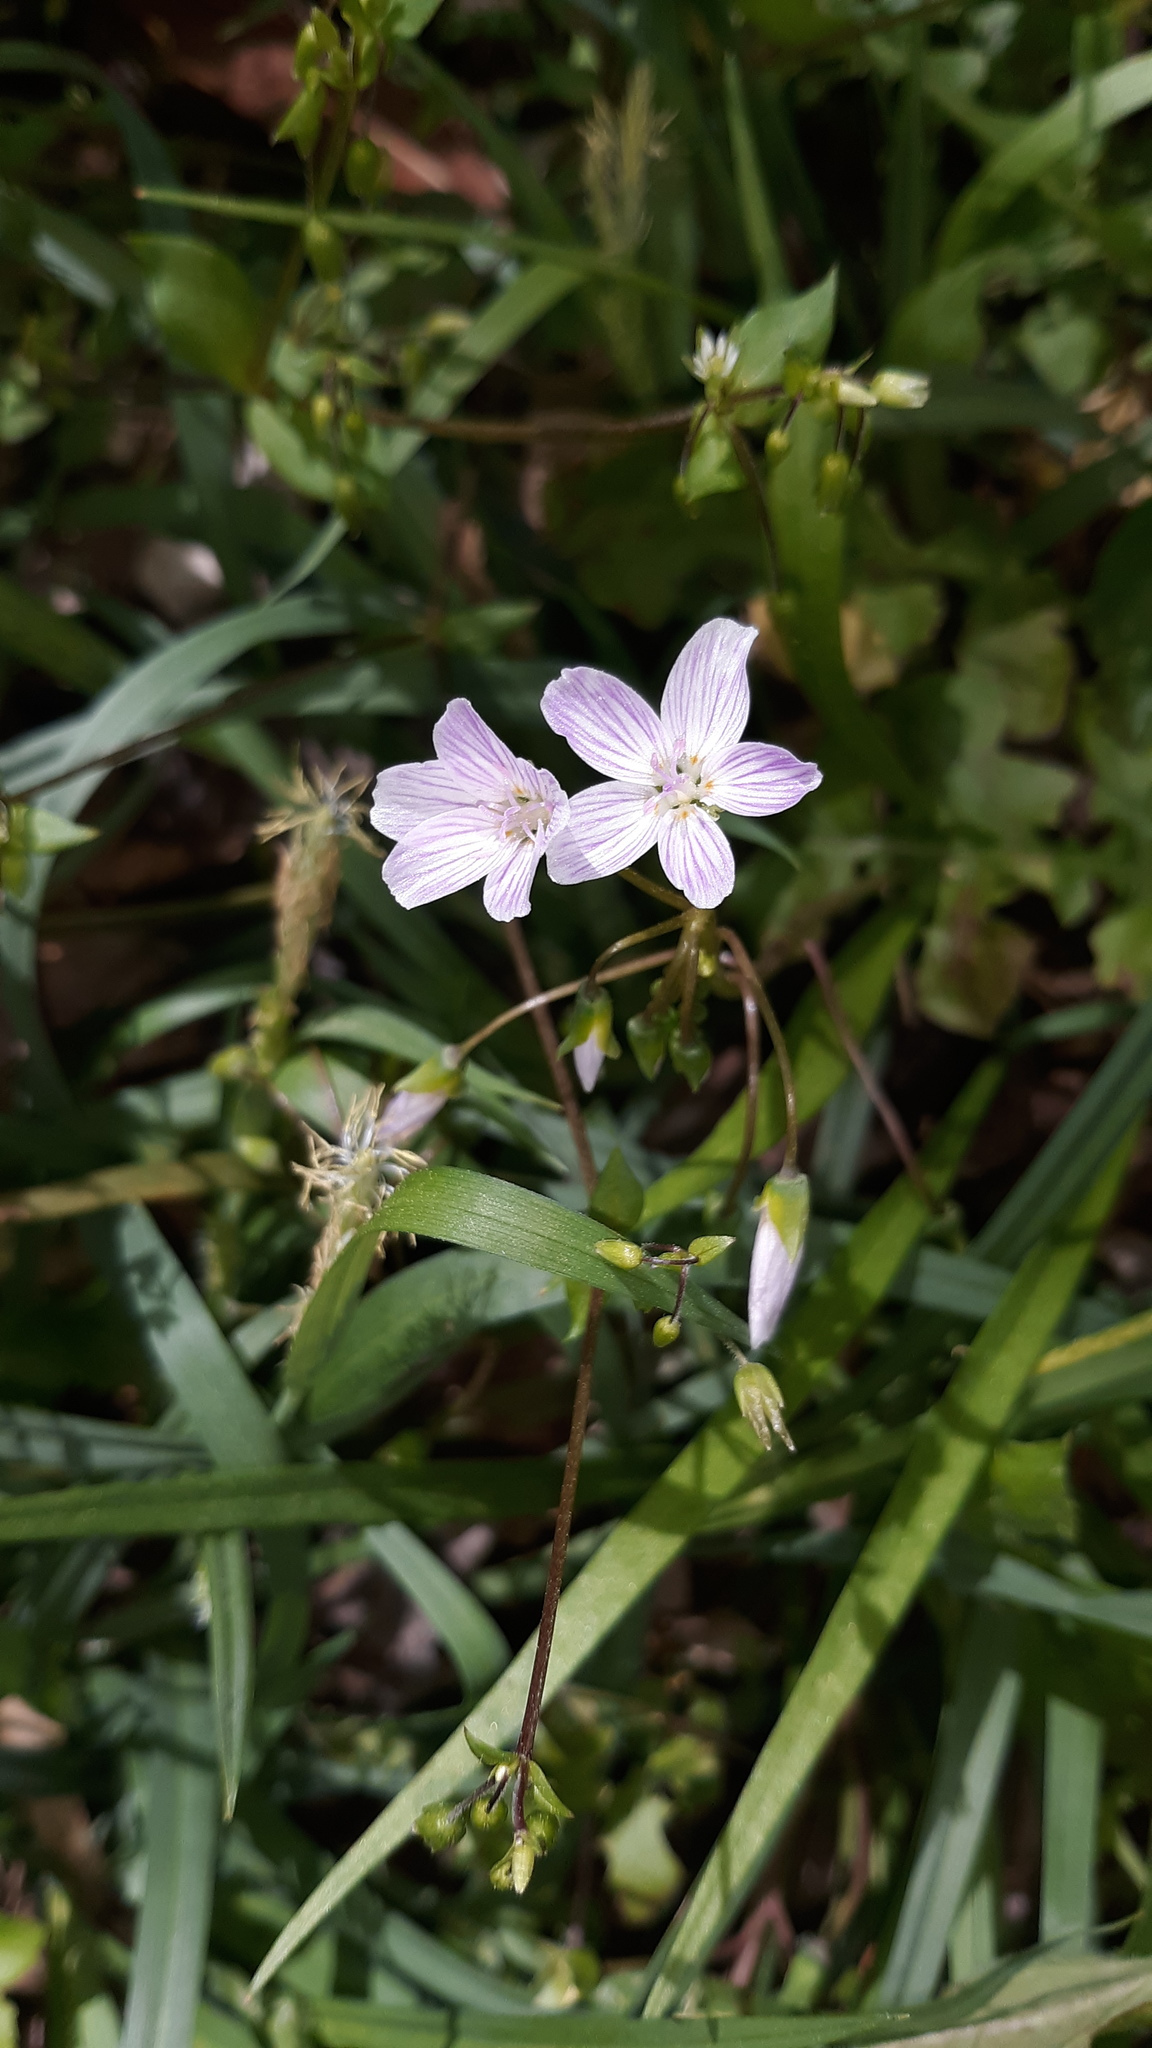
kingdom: Plantae
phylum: Tracheophyta
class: Magnoliopsida
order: Caryophyllales
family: Montiaceae
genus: Claytonia
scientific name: Claytonia virginica
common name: Virginia springbeauty
